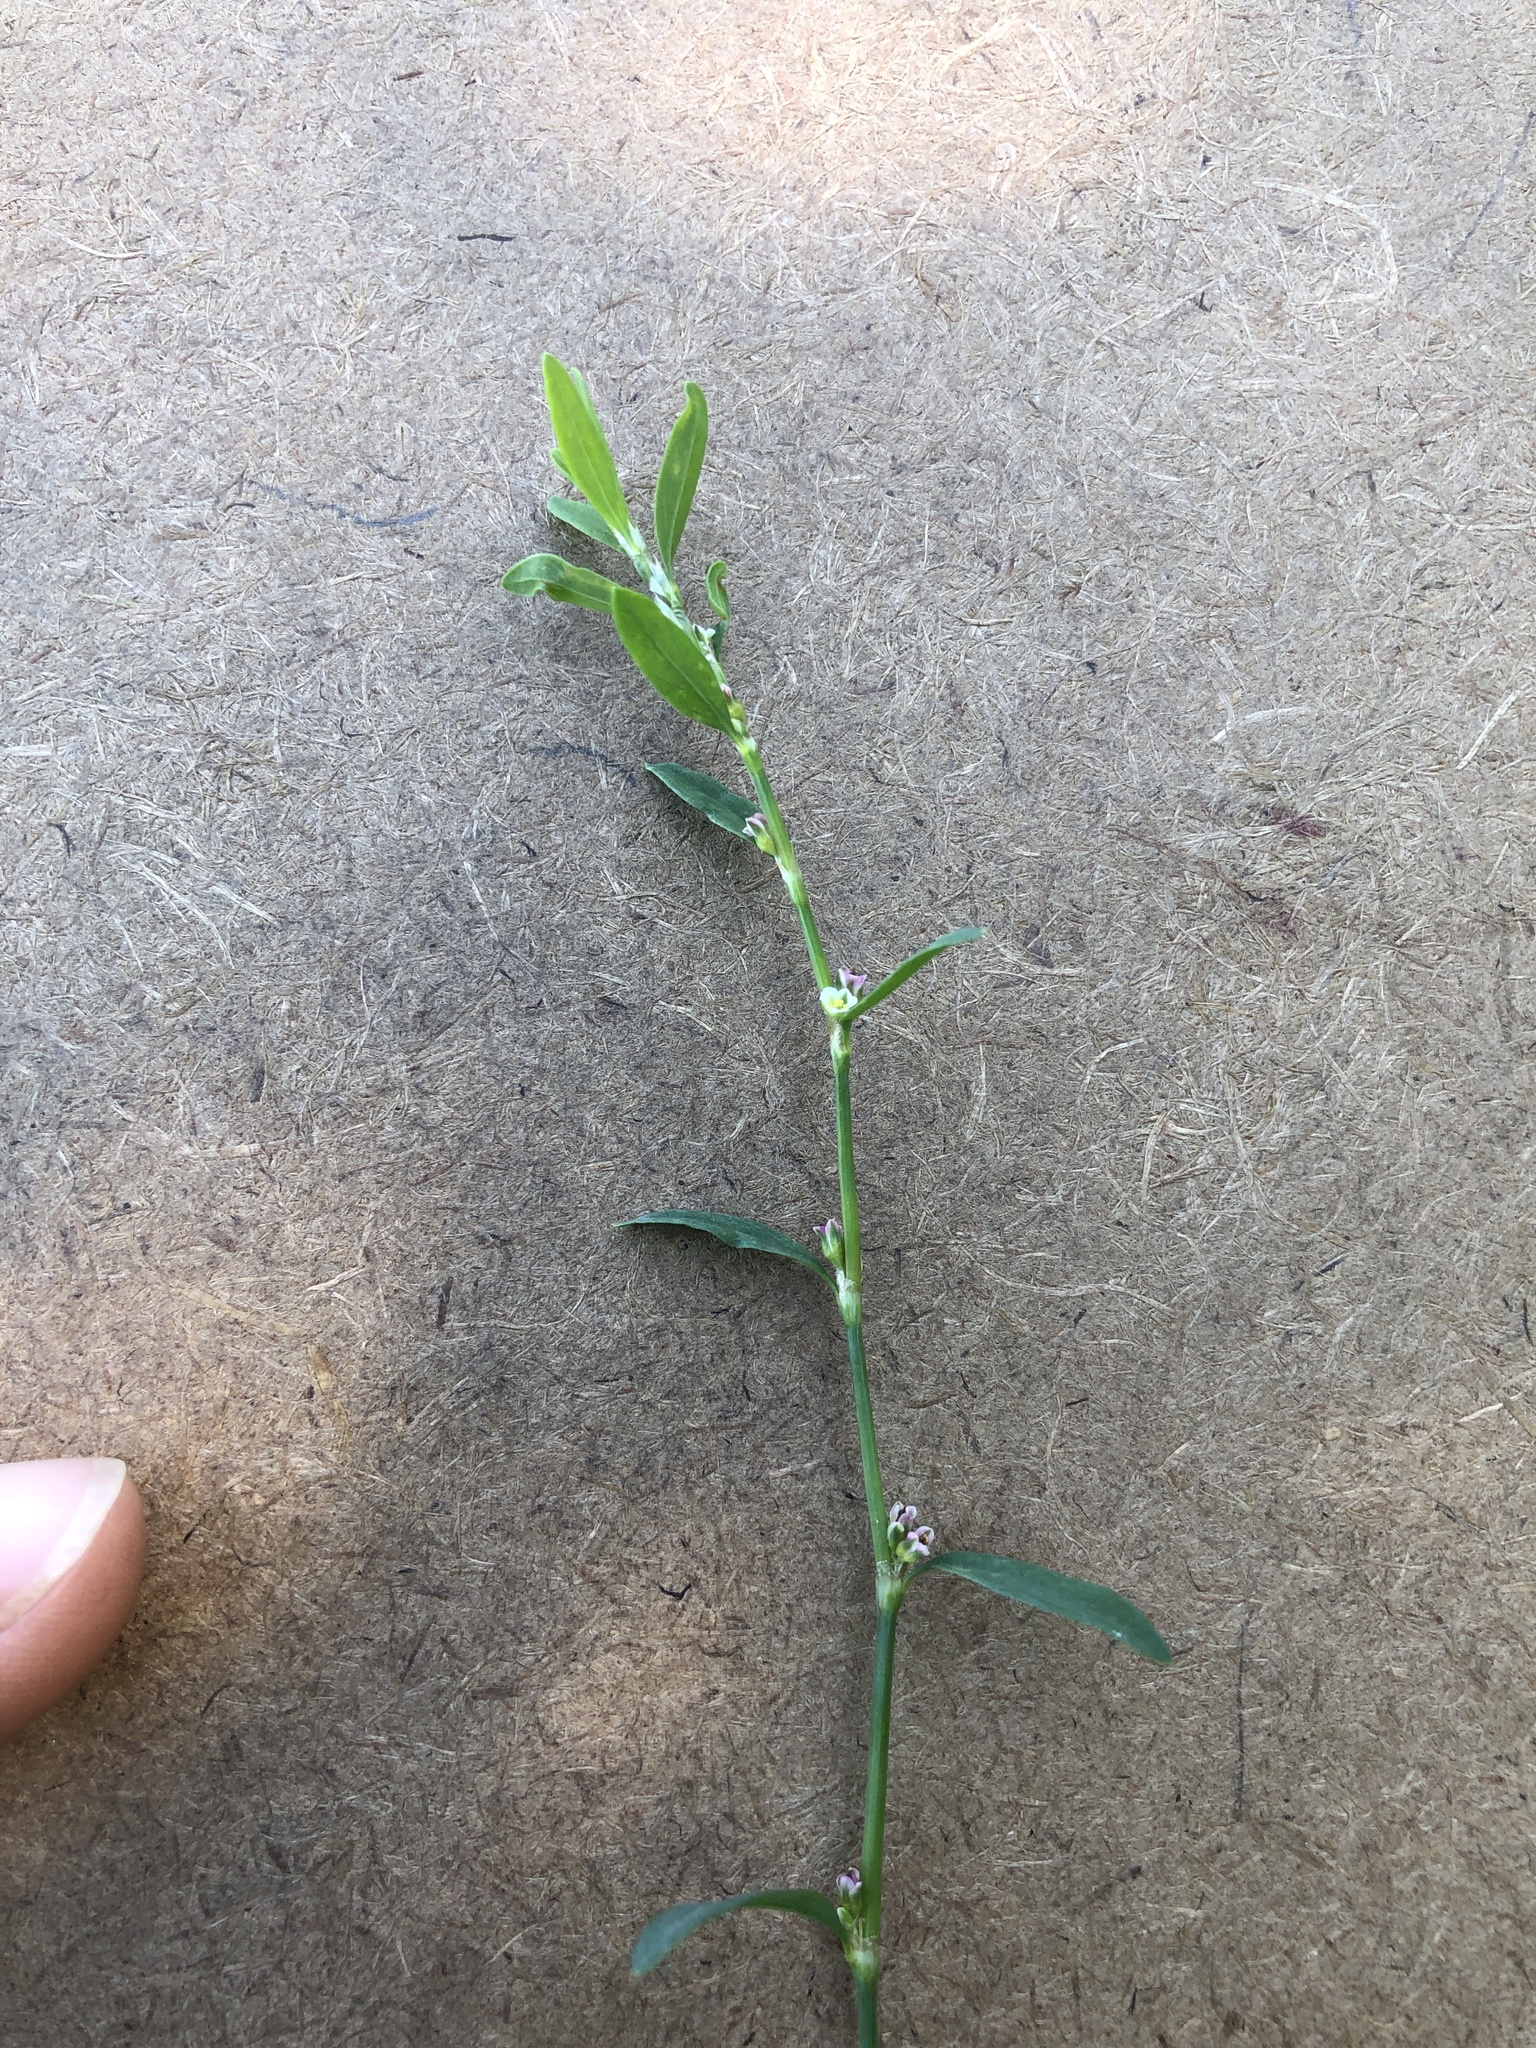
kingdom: Plantae
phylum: Tracheophyta
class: Magnoliopsida
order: Caryophyllales
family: Polygonaceae
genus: Polygonum
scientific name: Polygonum aviculare
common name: Prostrate knotweed
